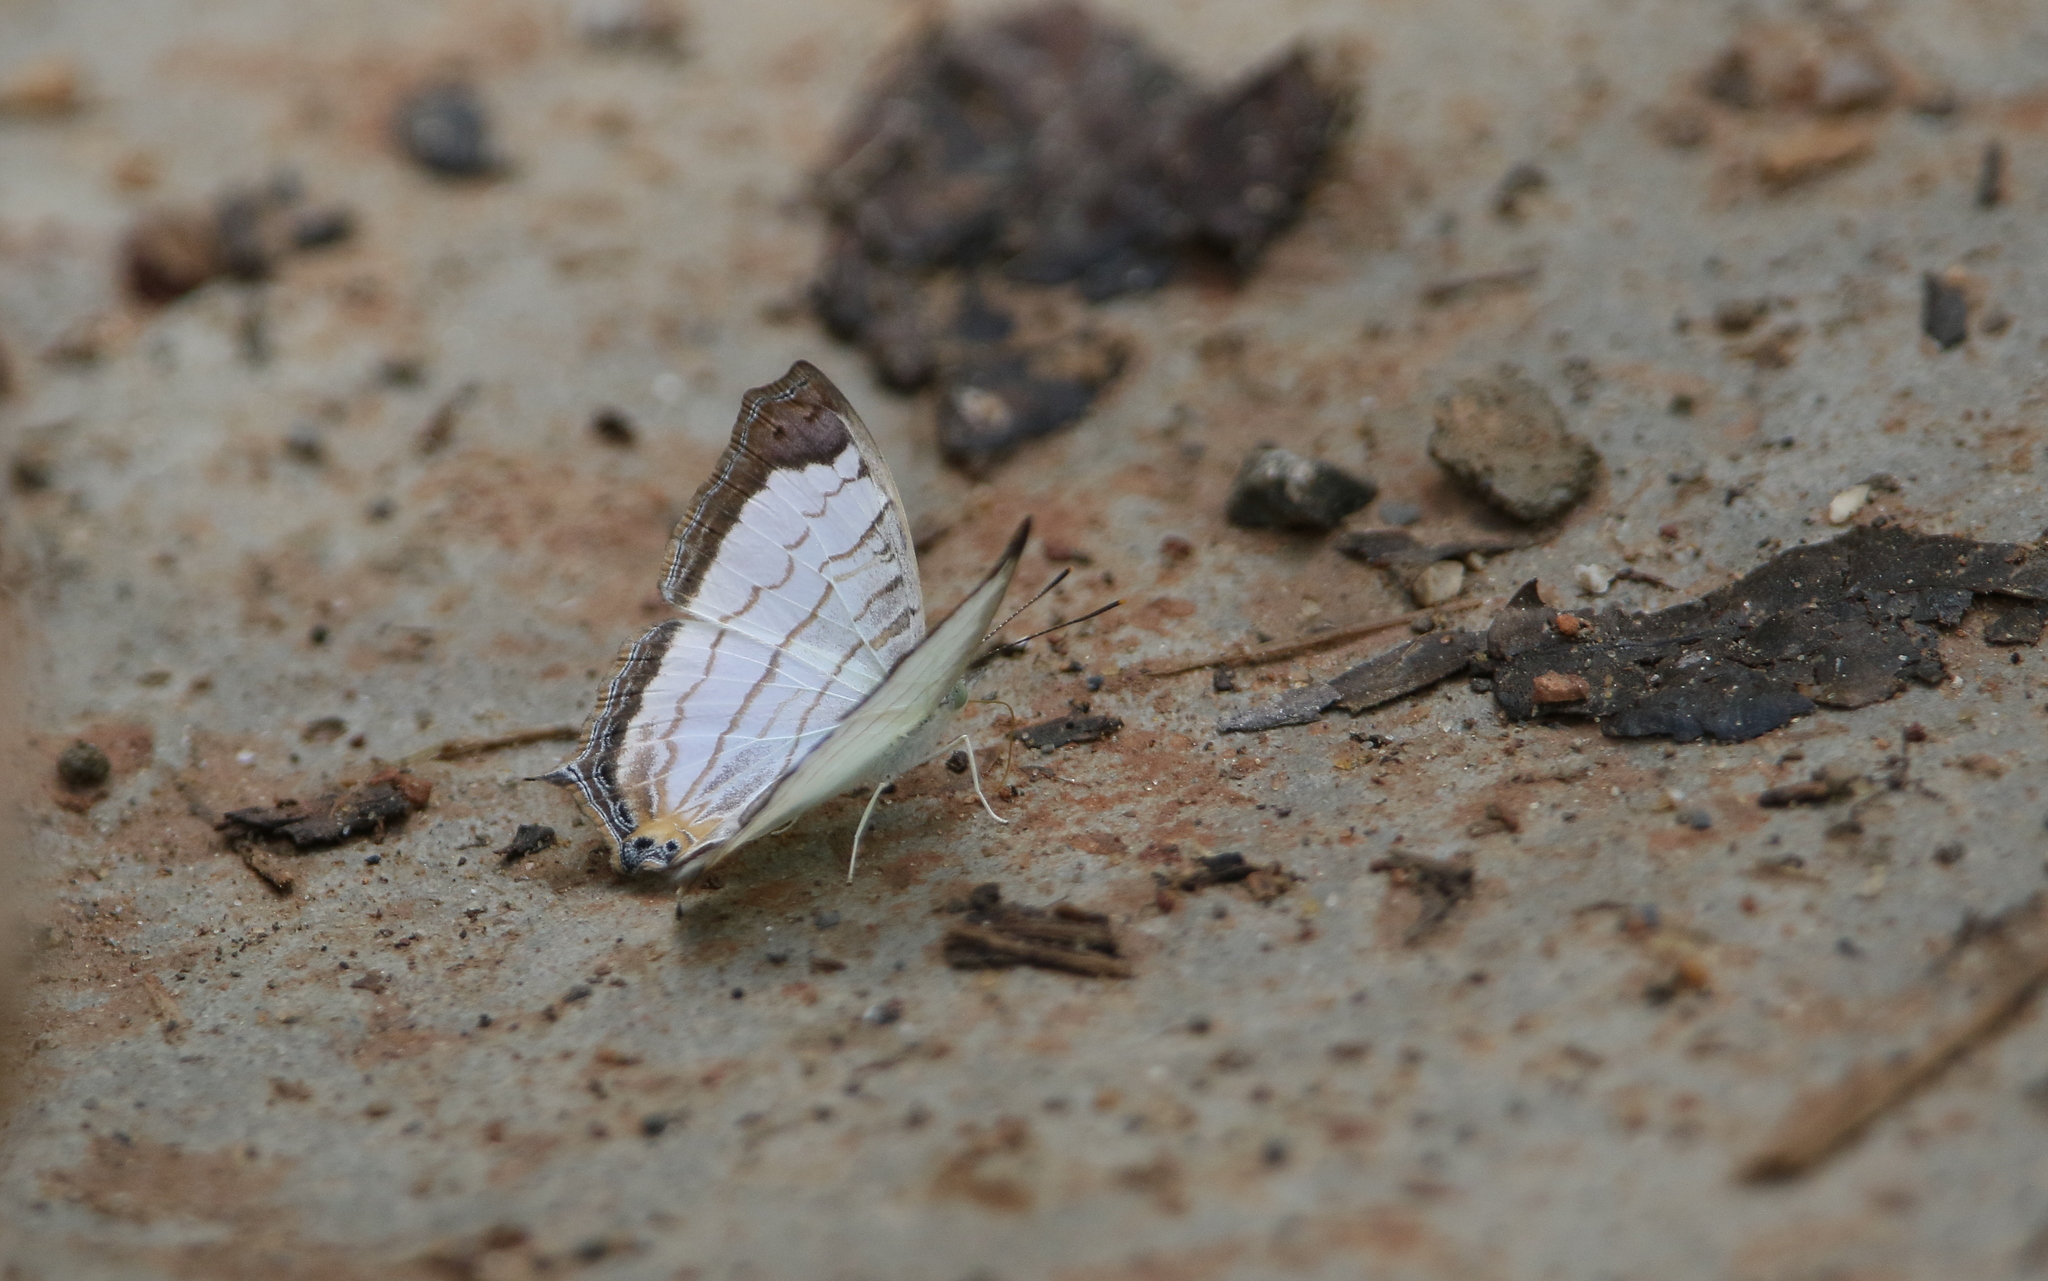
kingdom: Animalia
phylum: Arthropoda
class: Insecta
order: Lepidoptera
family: Nymphalidae
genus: Cyrestis
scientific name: Cyrestis themire
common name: Little mapwing
